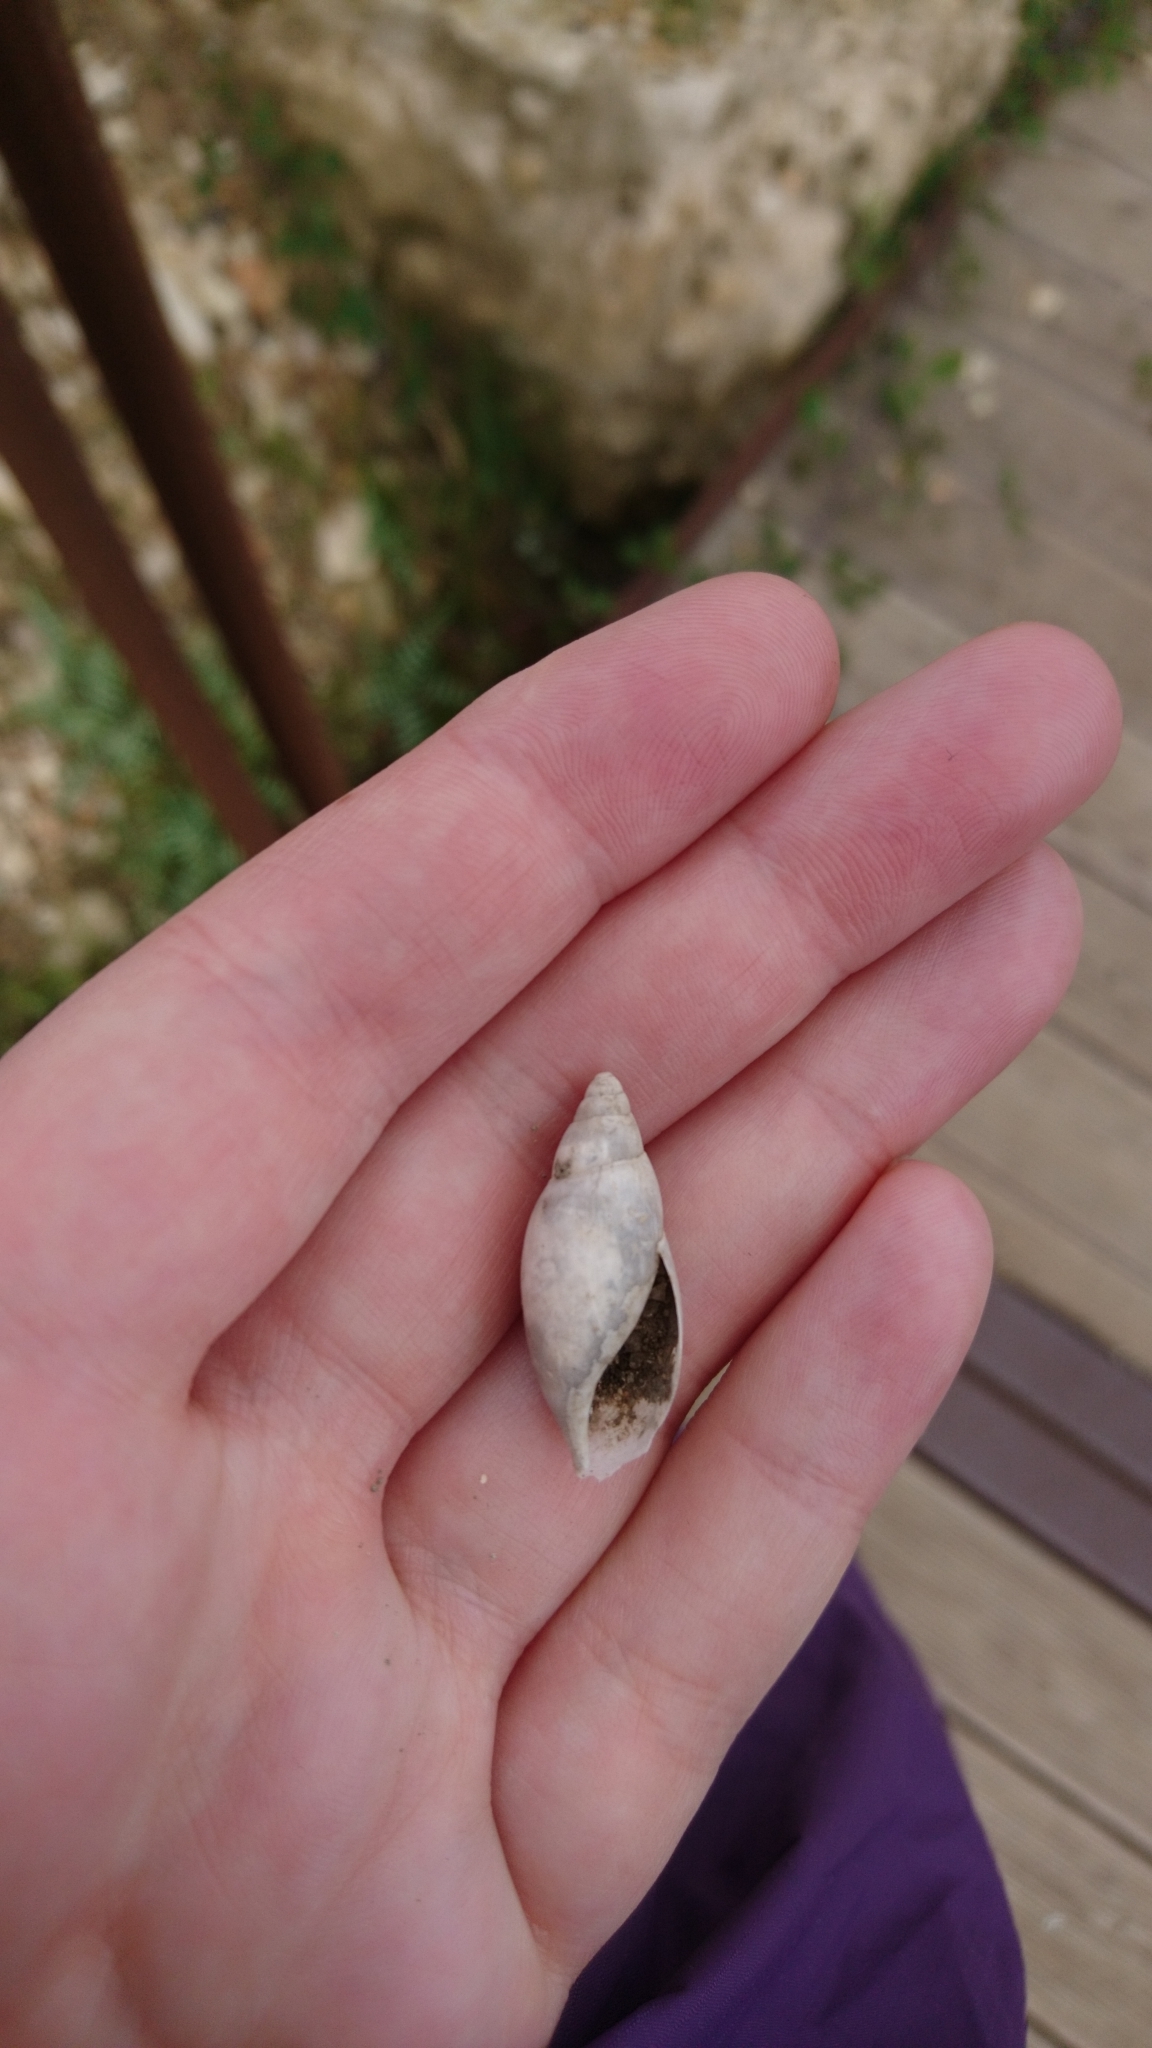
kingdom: Animalia
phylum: Mollusca
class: Gastropoda
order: Stylommatophora
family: Spiraxidae
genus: Poiretia
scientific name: Poiretia dilatata
